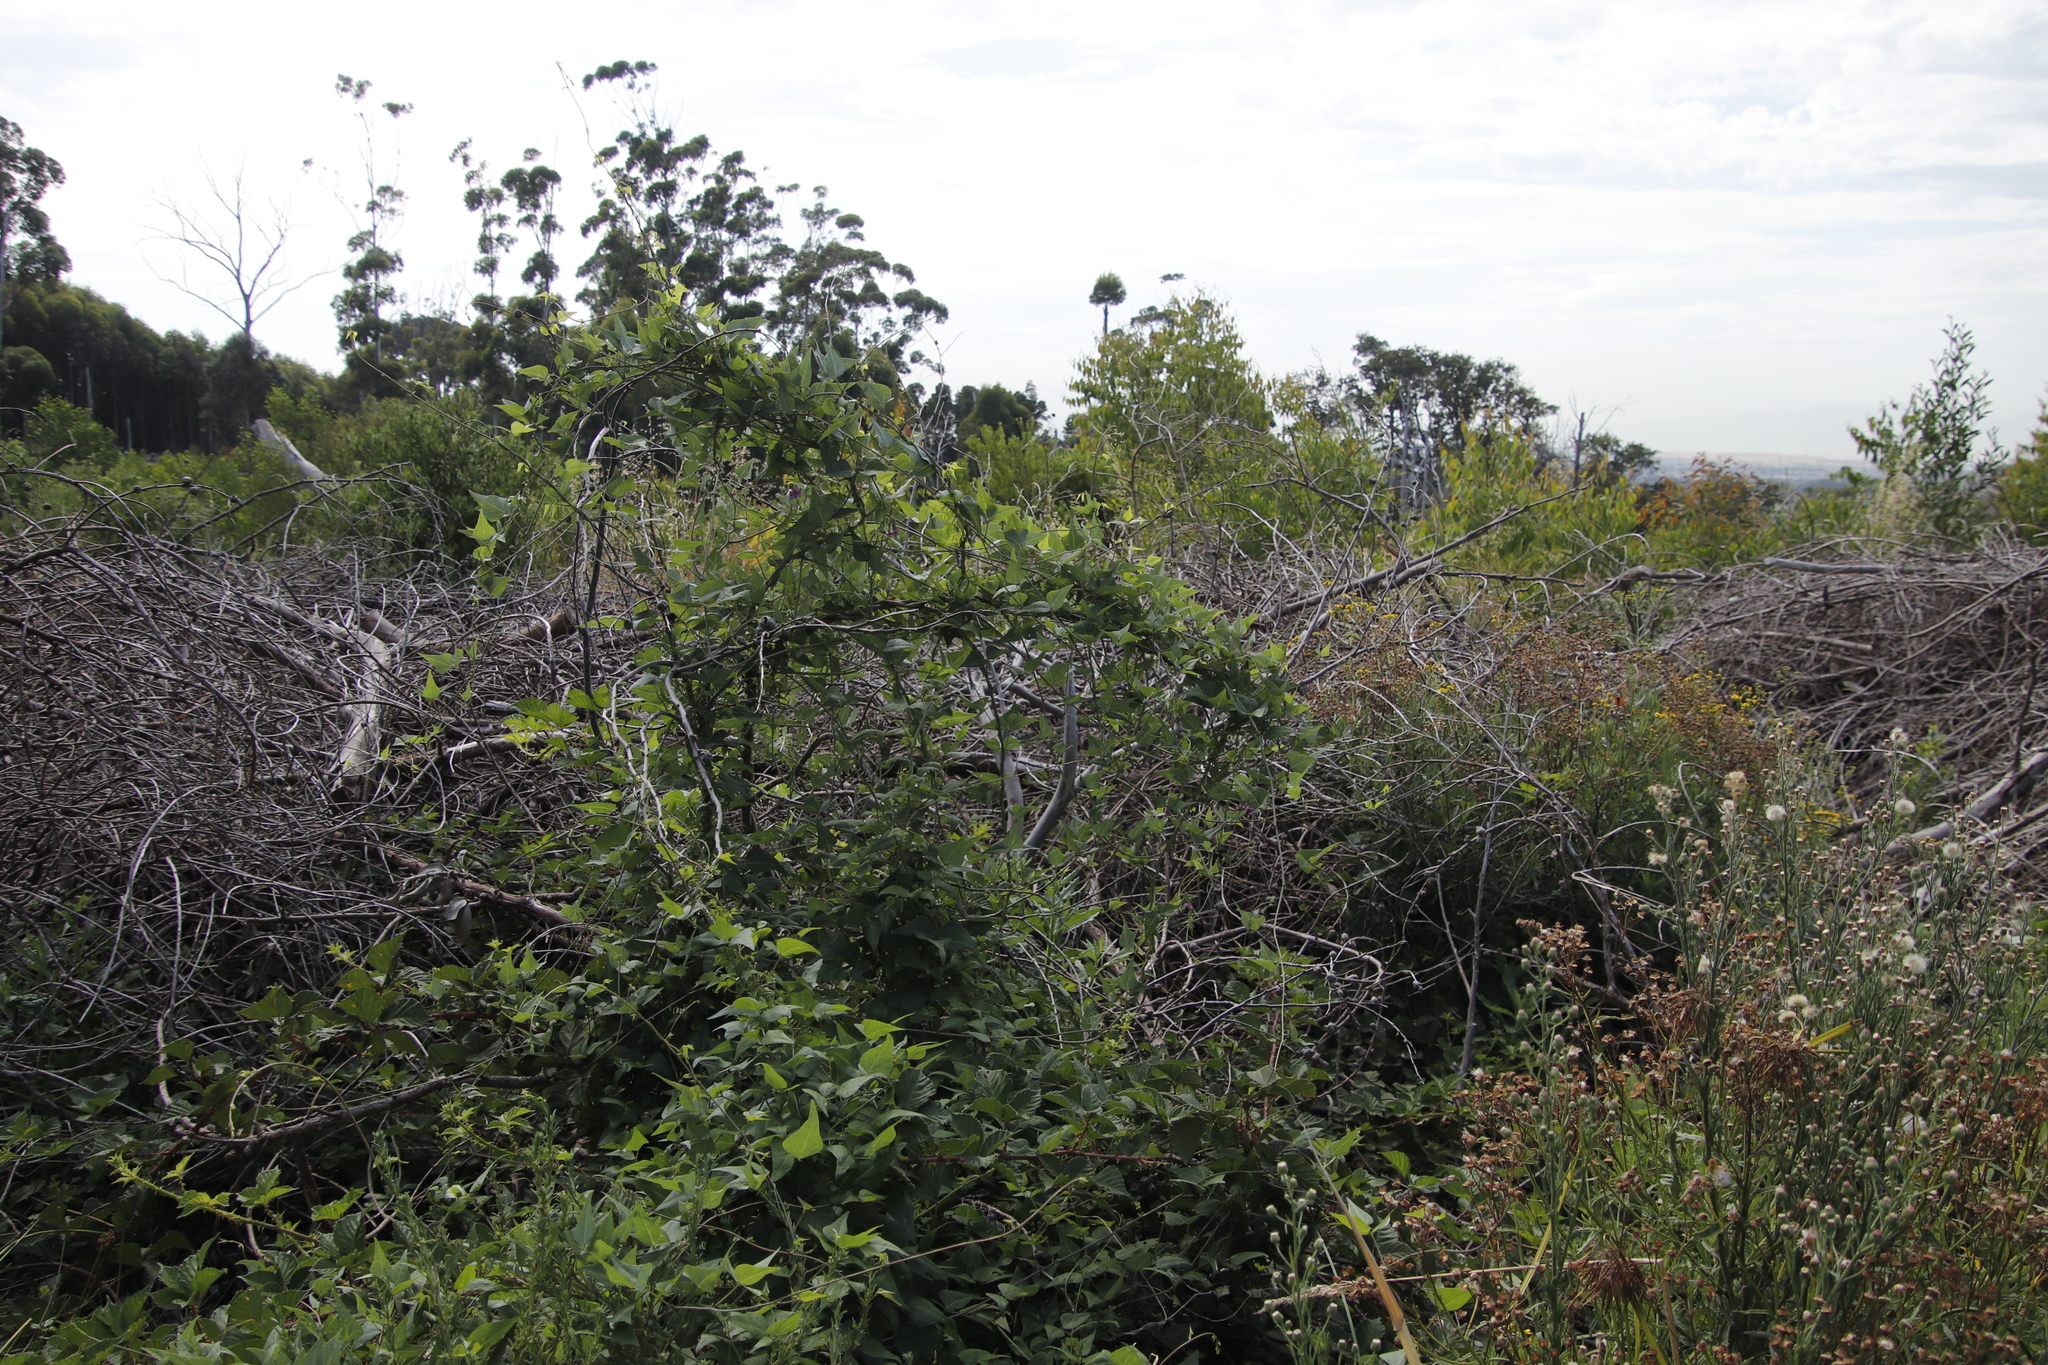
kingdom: Plantae
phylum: Tracheophyta
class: Magnoliopsida
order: Fabales
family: Fabaceae
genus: Dipogon
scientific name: Dipogon lignosus
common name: Okie bean
